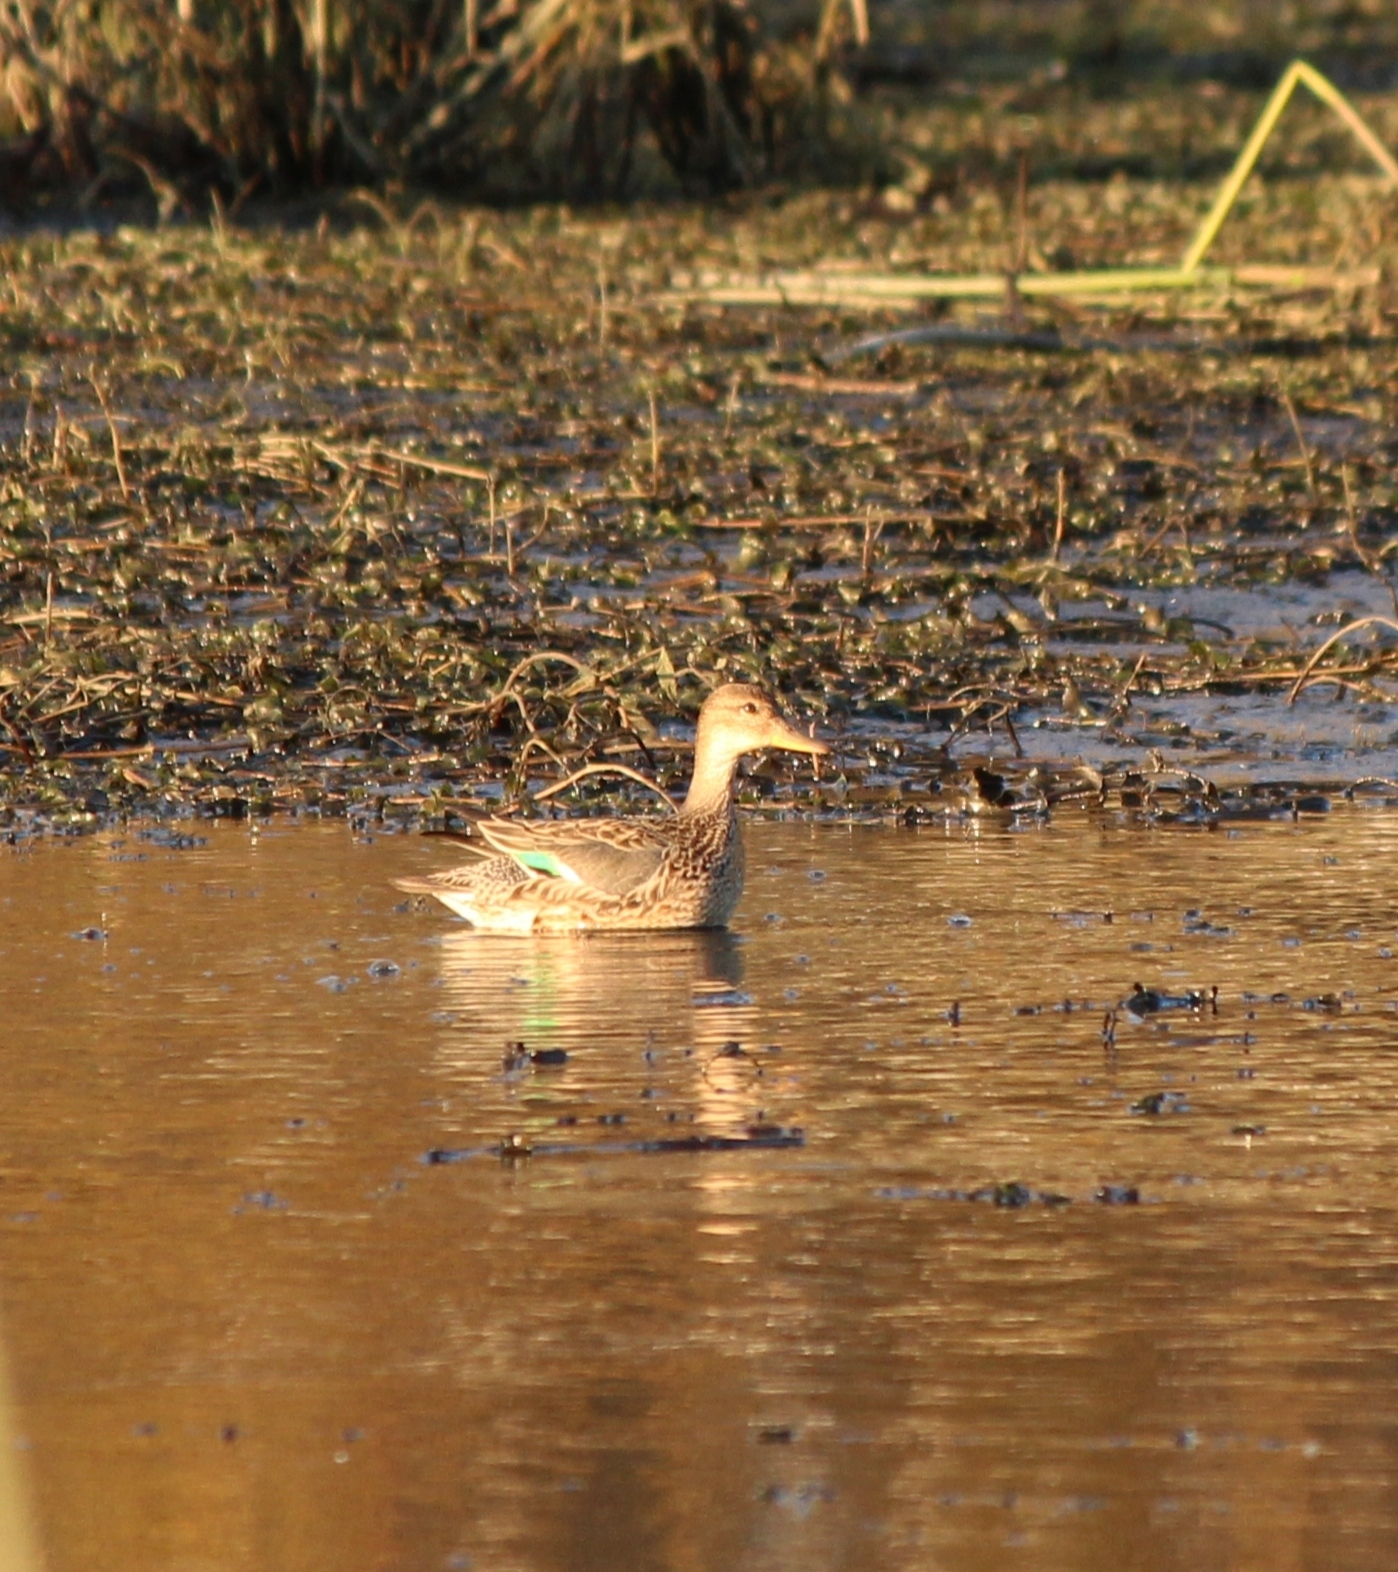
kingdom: Animalia
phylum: Chordata
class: Aves
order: Anseriformes
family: Anatidae
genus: Anas
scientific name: Anas crecca
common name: Eurasian teal
